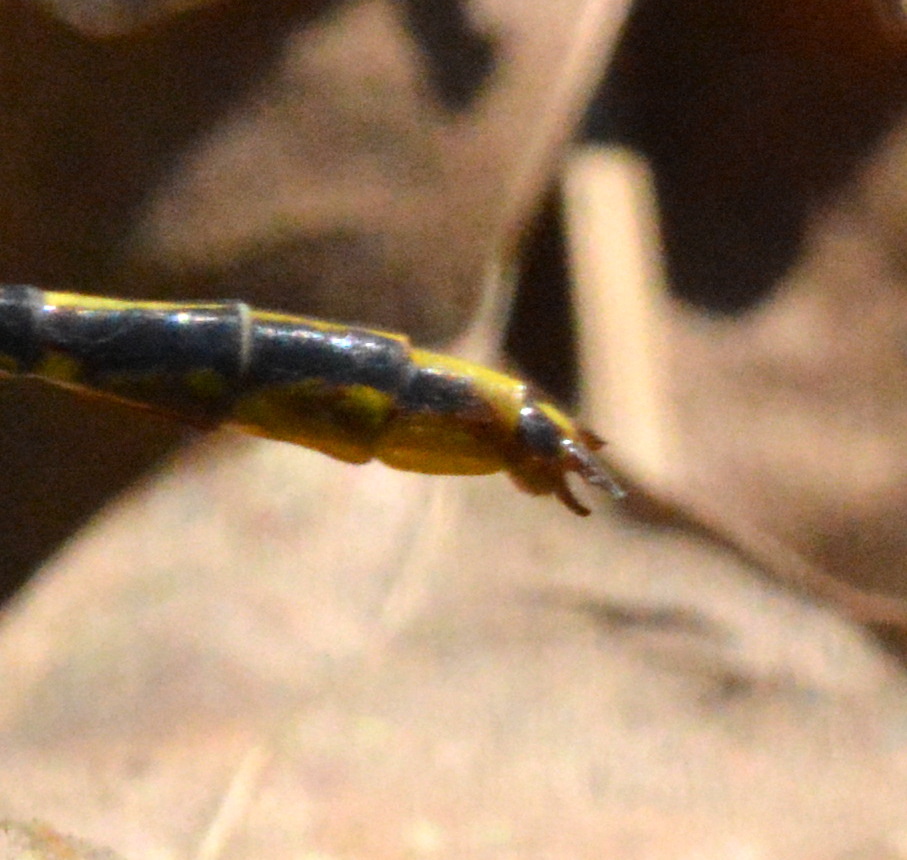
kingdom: Animalia
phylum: Arthropoda
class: Insecta
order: Odonata
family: Gomphidae
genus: Phanogomphus
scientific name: Phanogomphus exilis
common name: Lancet clubtail
